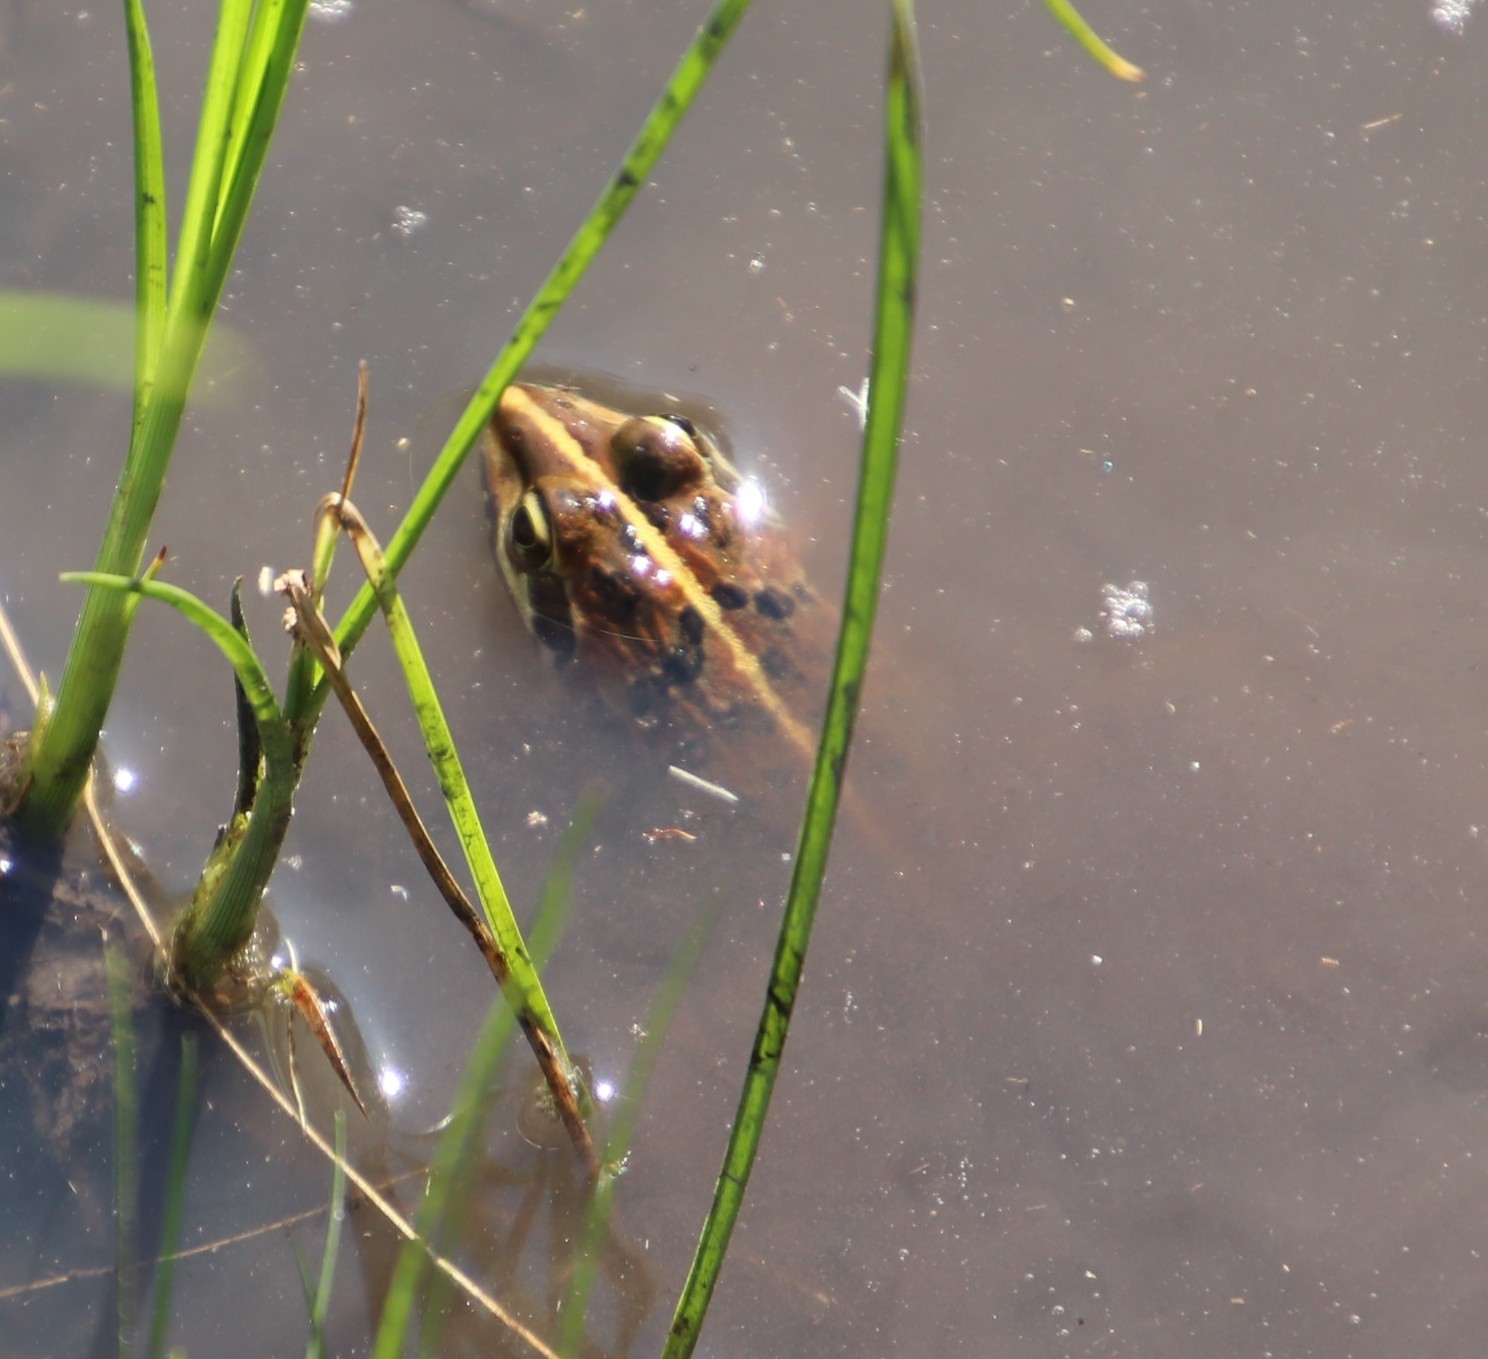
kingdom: Animalia
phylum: Chordata
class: Amphibia
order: Anura
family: Pyxicephalidae
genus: Amietia
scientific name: Amietia delalandii
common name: Delalande's river frog
